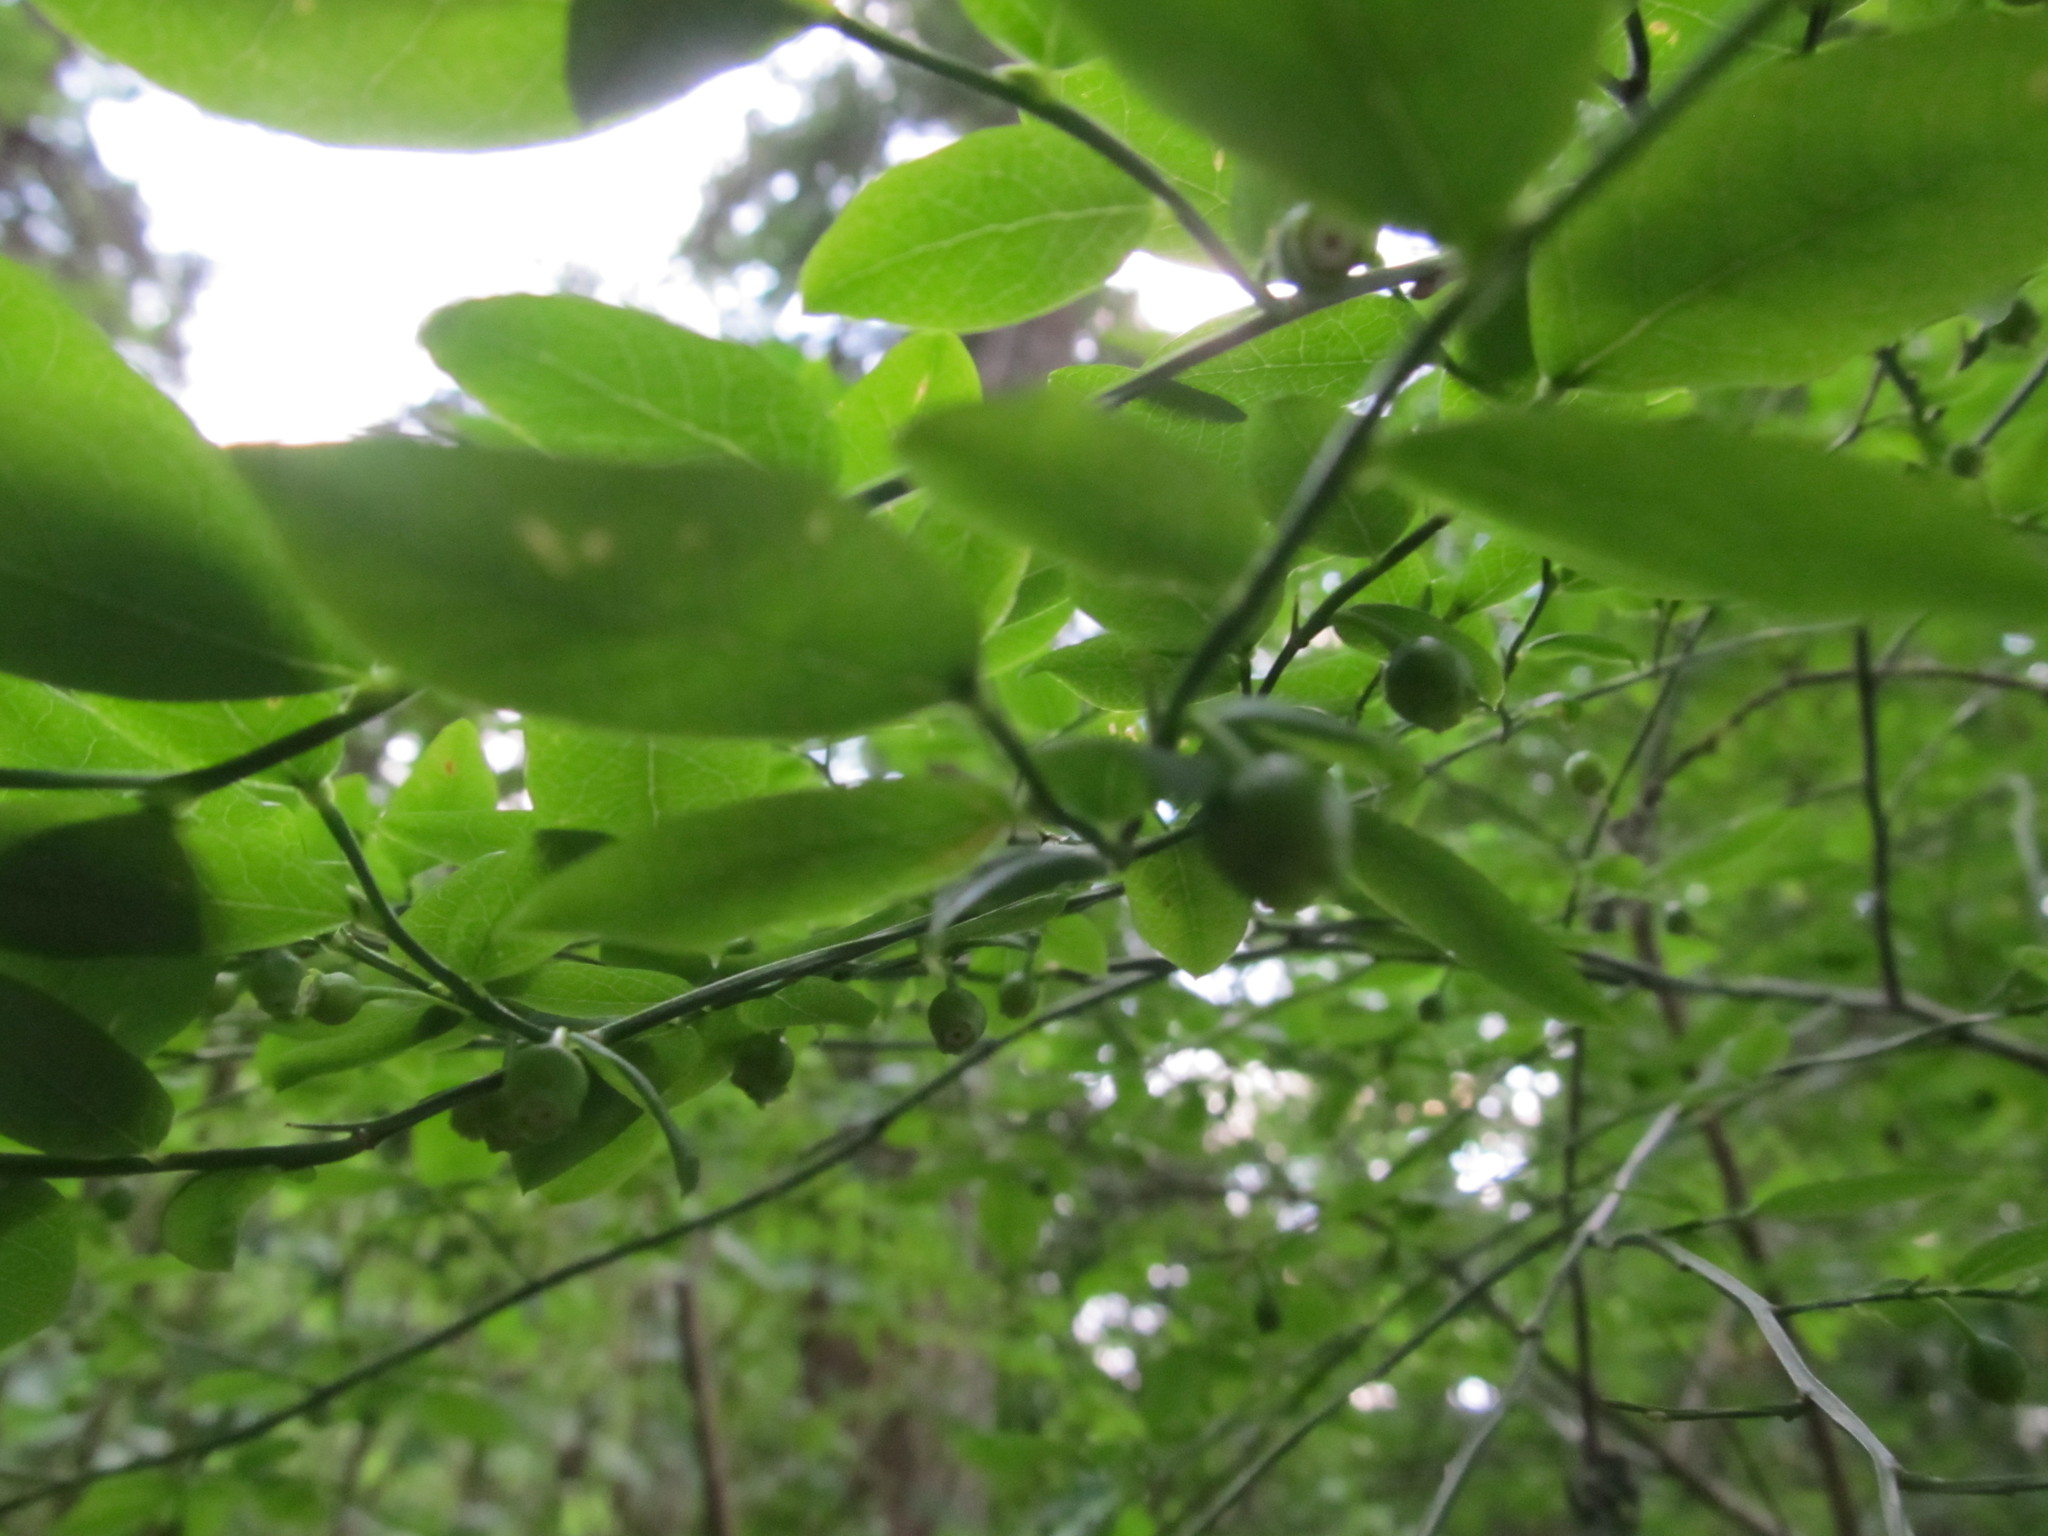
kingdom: Plantae
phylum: Tracheophyta
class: Magnoliopsida
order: Ericales
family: Ericaceae
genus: Vaccinium
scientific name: Vaccinium parvifolium
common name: Red-huckleberry
